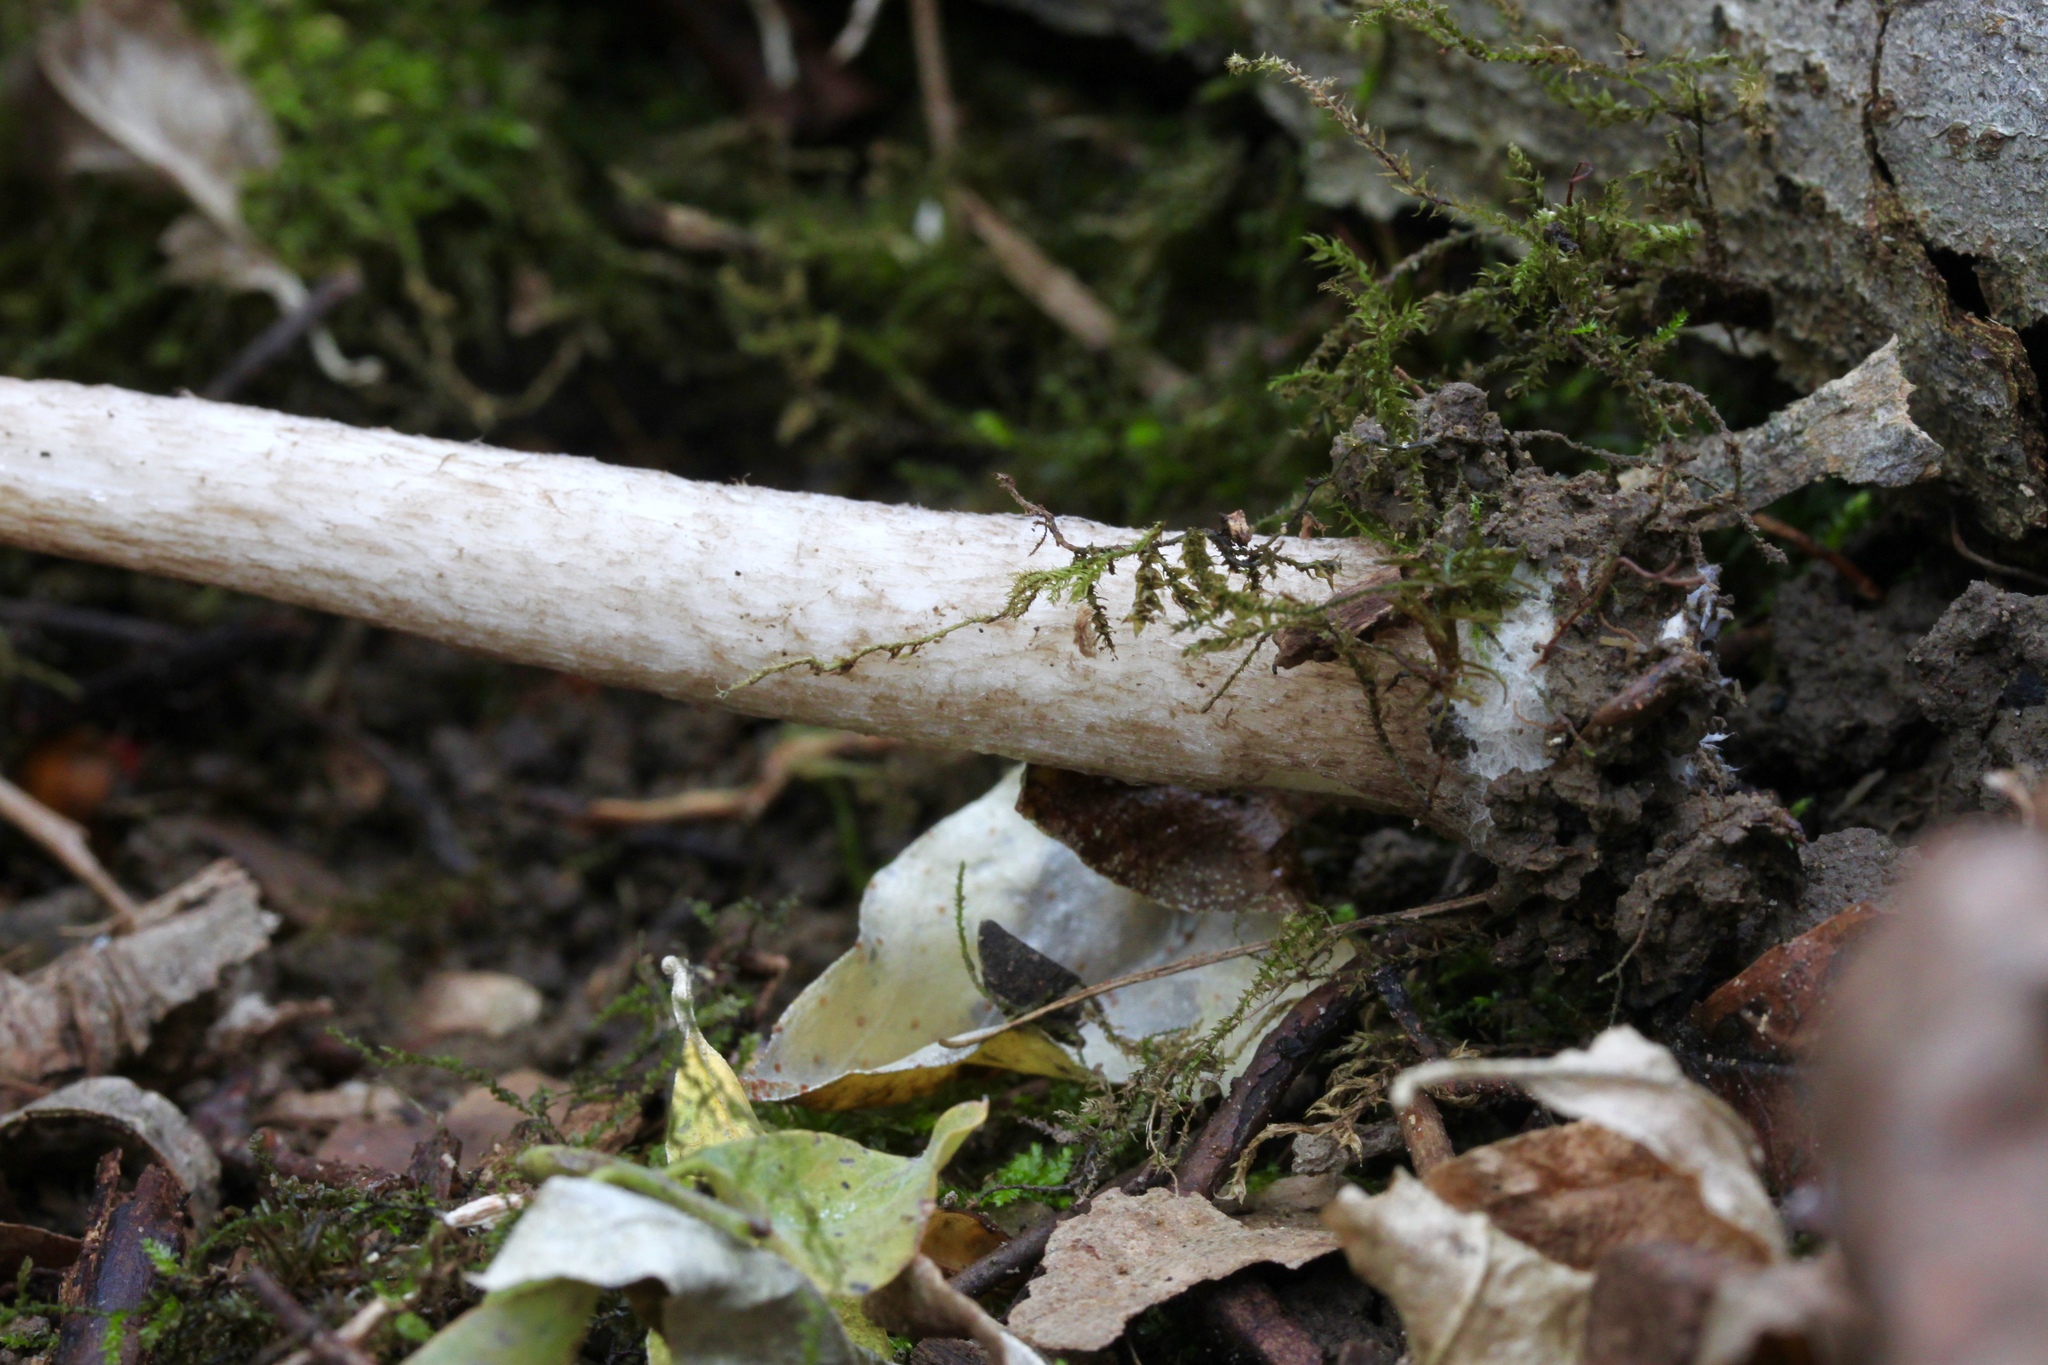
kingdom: Fungi
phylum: Basidiomycota
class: Agaricomycetes
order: Agaricales
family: Pluteaceae
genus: Pluteus
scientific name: Pluteus cervinus
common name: Deer shield
